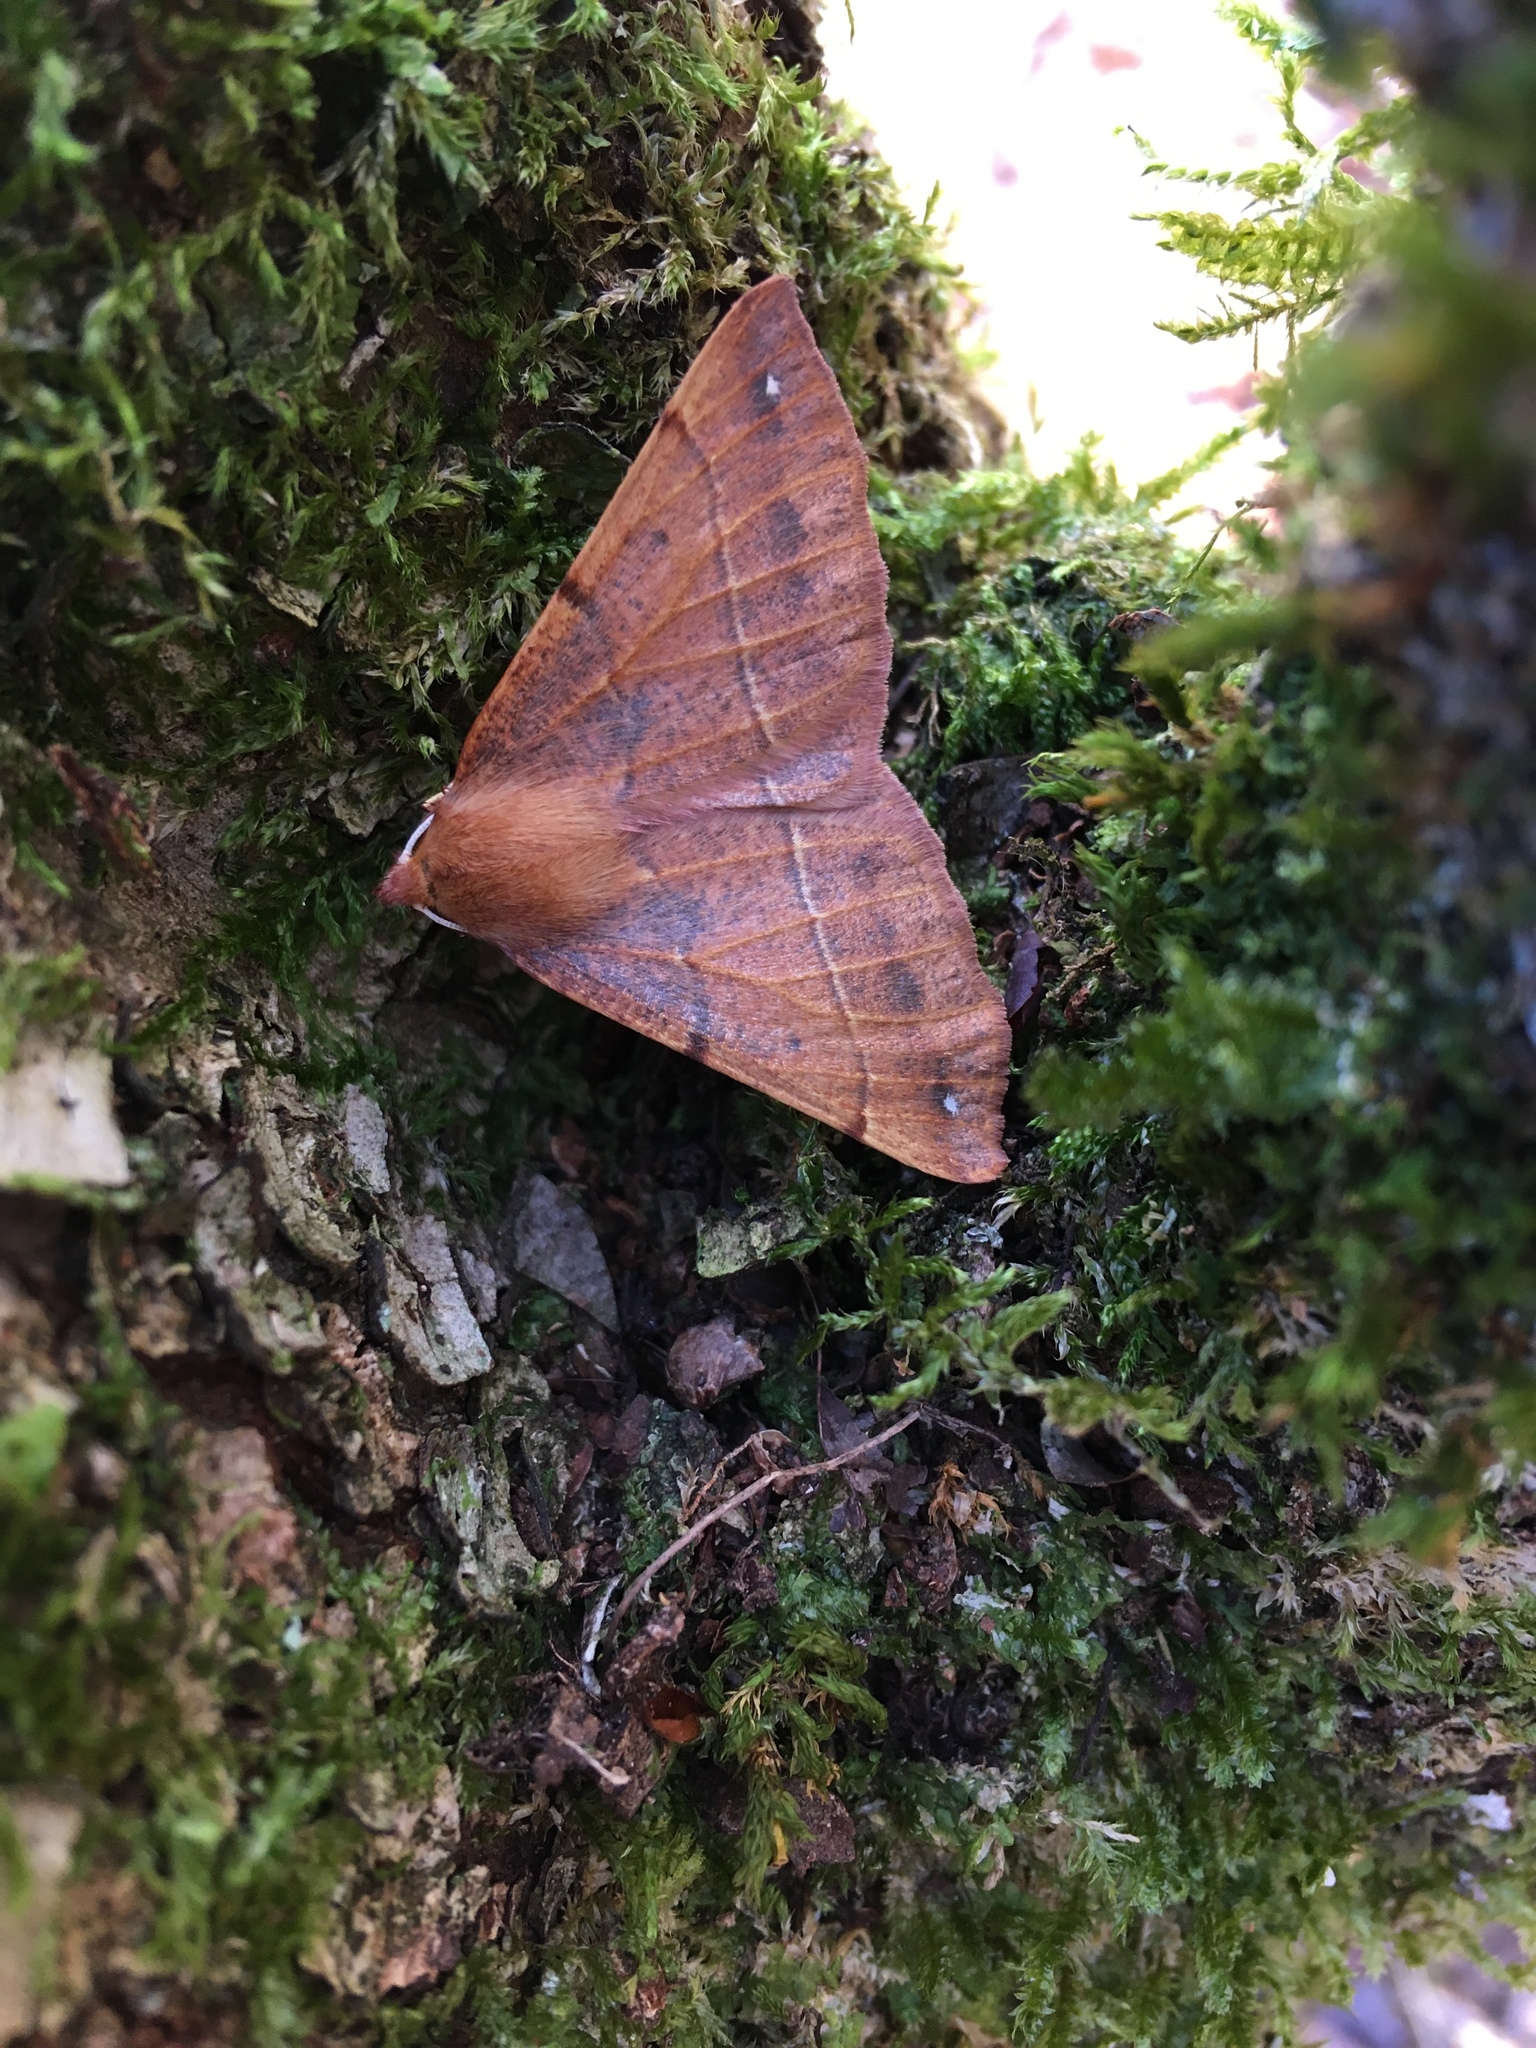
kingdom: Animalia
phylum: Arthropoda
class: Insecta
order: Lepidoptera
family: Geometridae
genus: Colotois
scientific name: Colotois pennaria
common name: Feathered thorn
